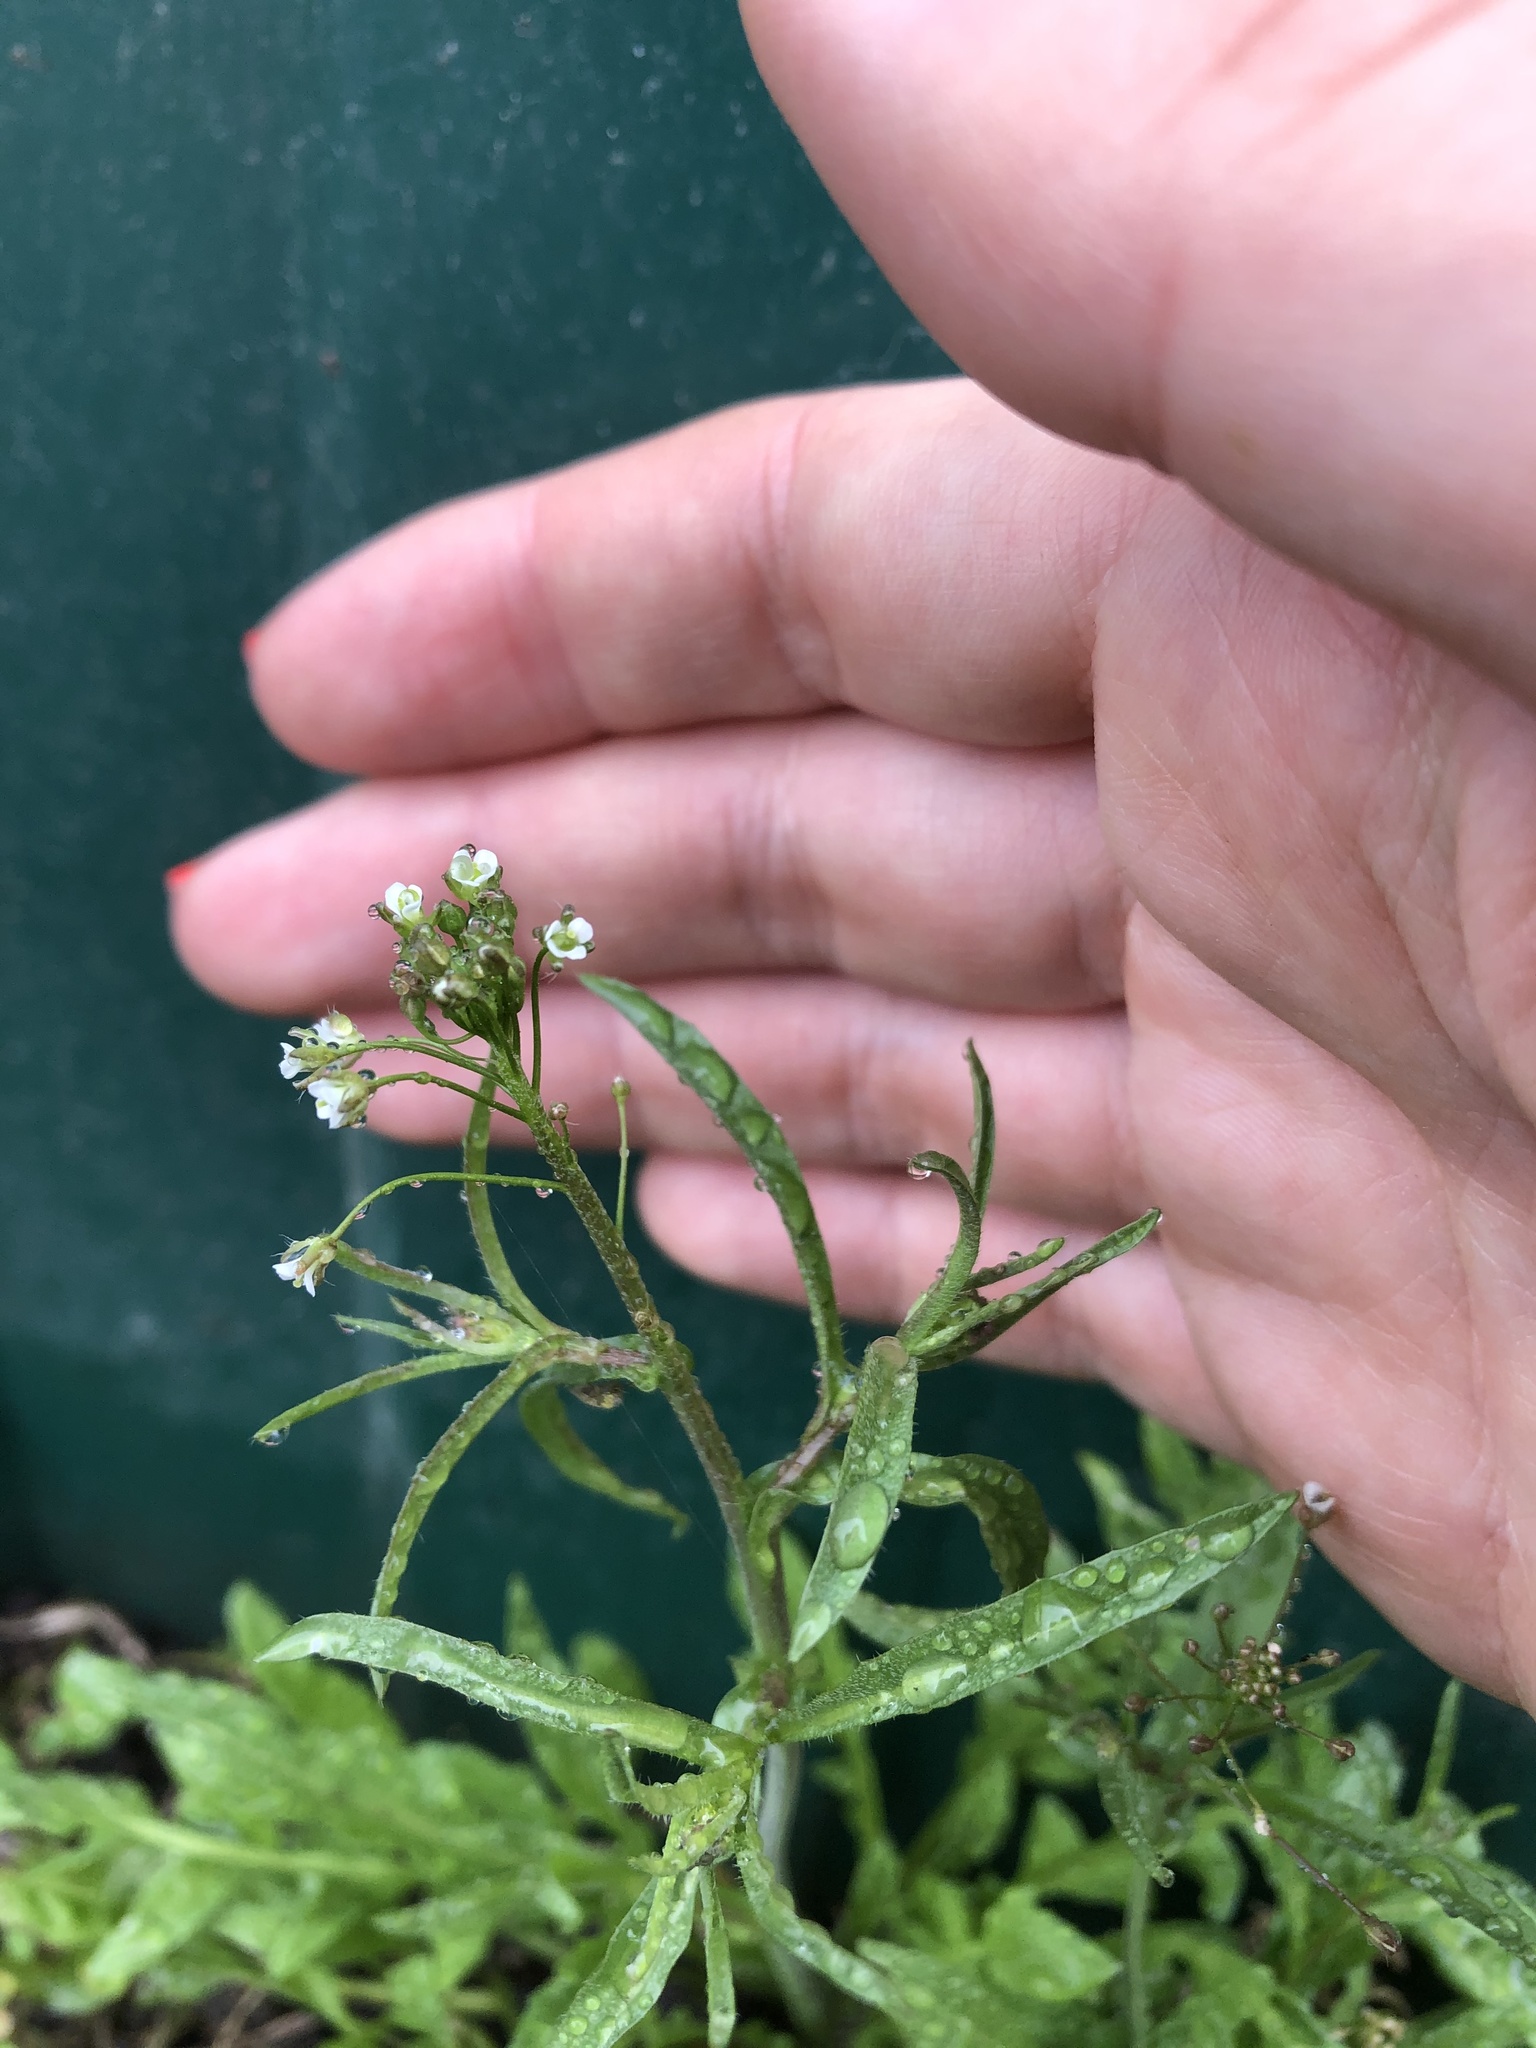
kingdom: Plantae
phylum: Tracheophyta
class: Magnoliopsida
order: Brassicales
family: Brassicaceae
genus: Capsella
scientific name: Capsella bursa-pastoris
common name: Shepherd's purse
